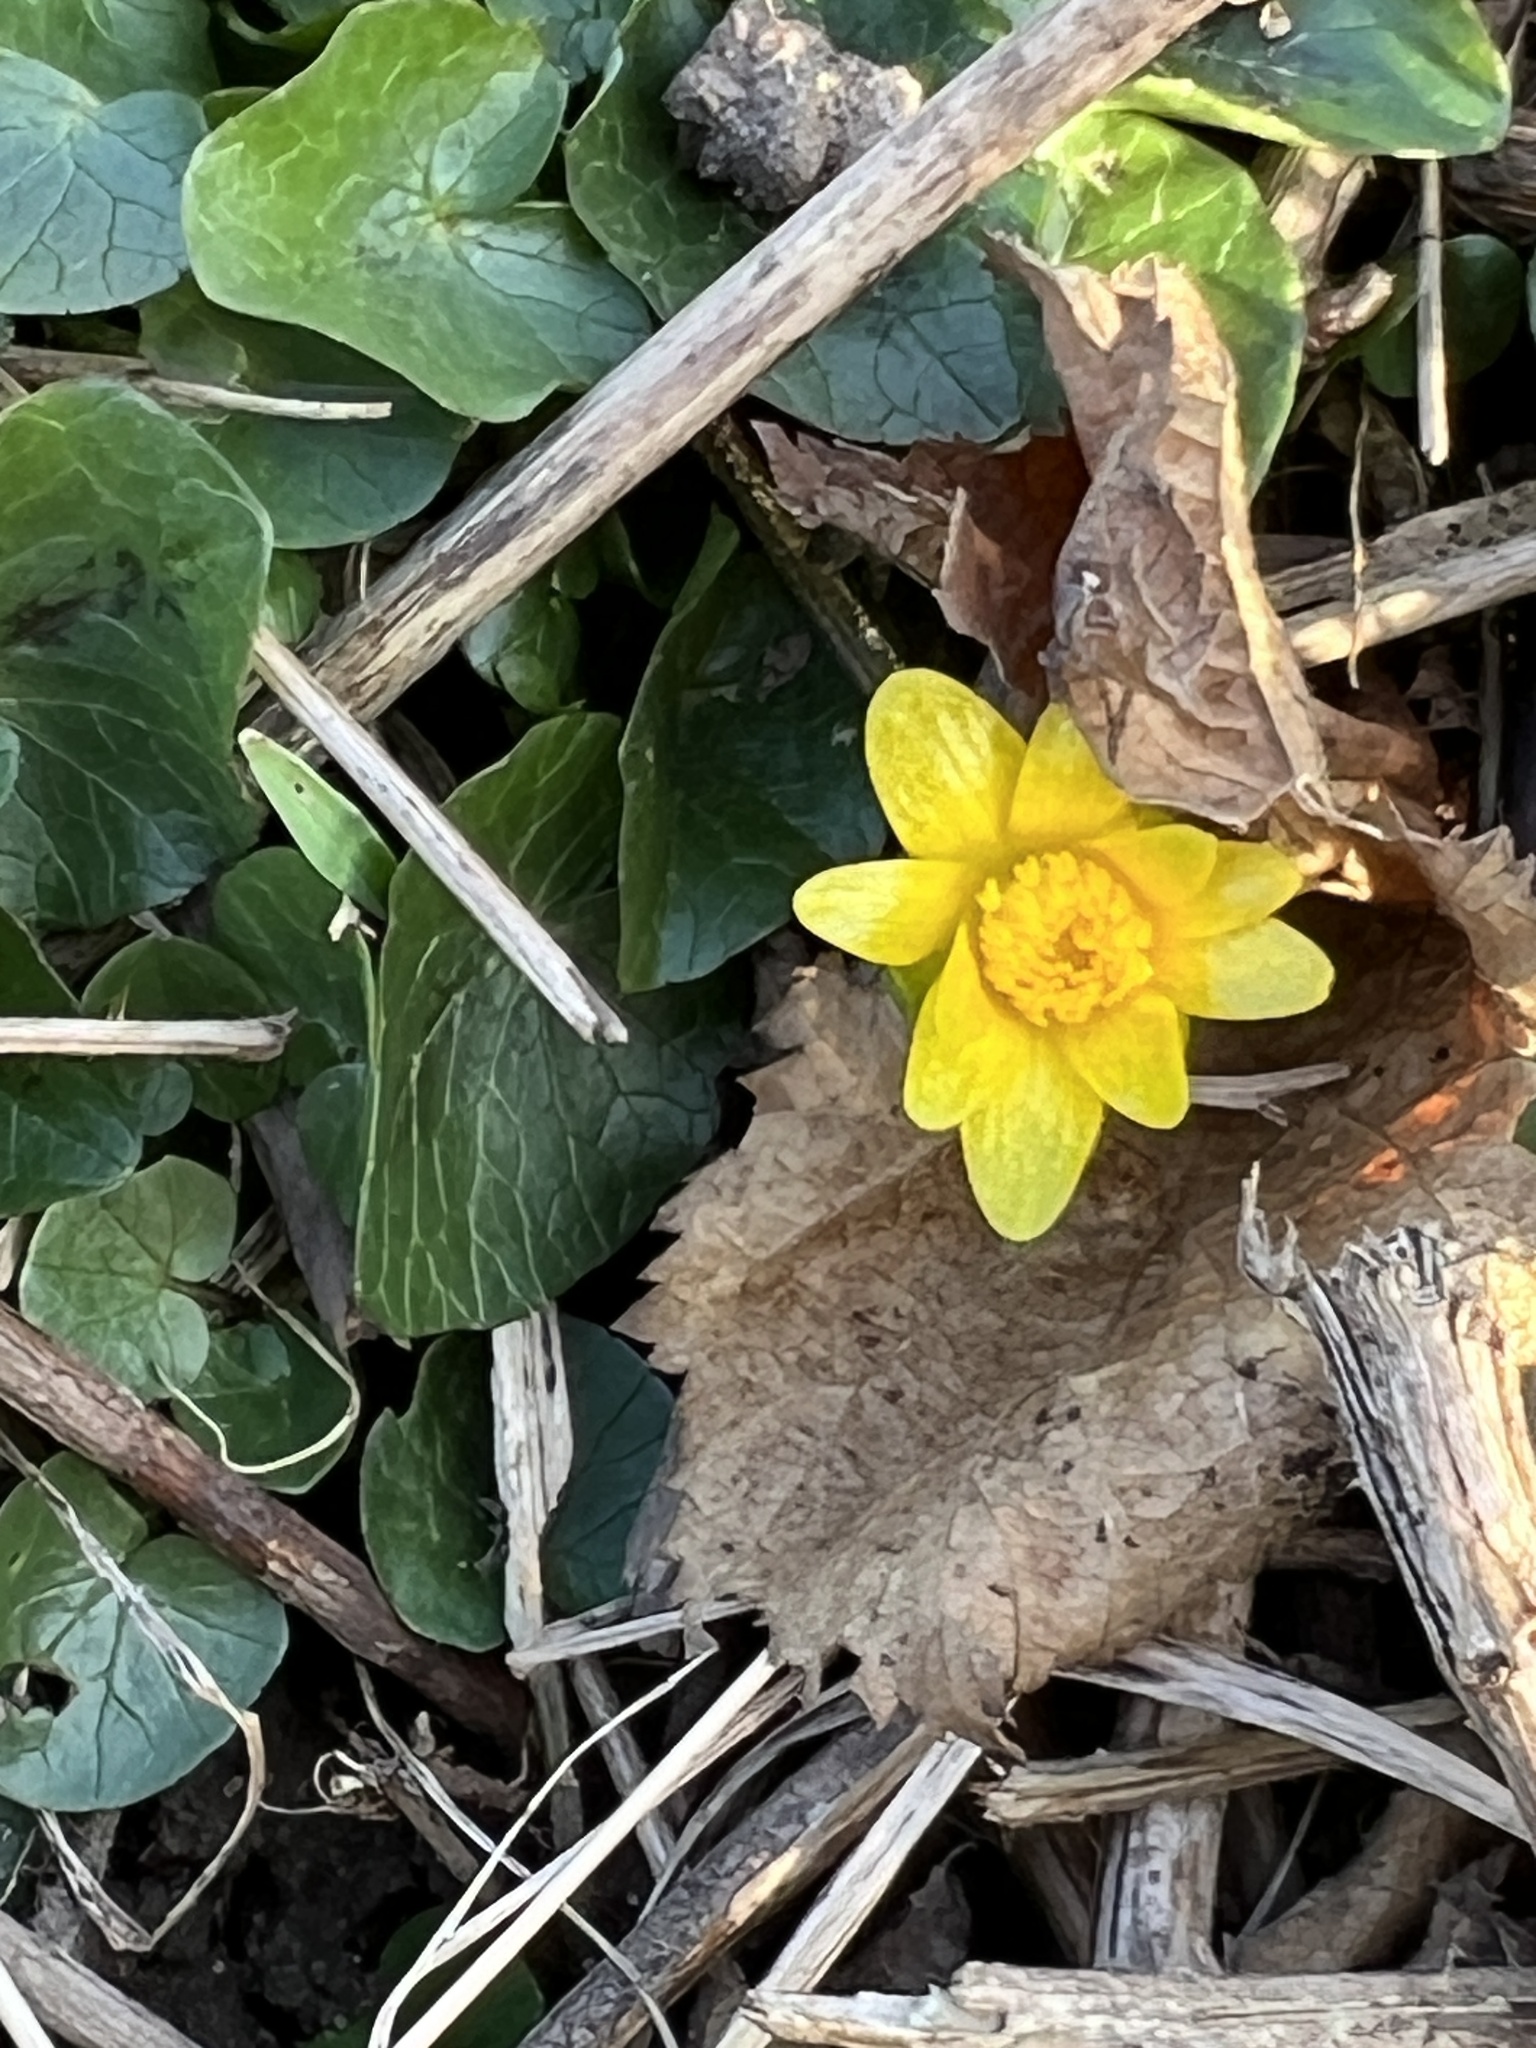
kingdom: Plantae
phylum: Tracheophyta
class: Magnoliopsida
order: Ranunculales
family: Ranunculaceae
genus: Ficaria
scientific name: Ficaria verna
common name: Lesser celandine
